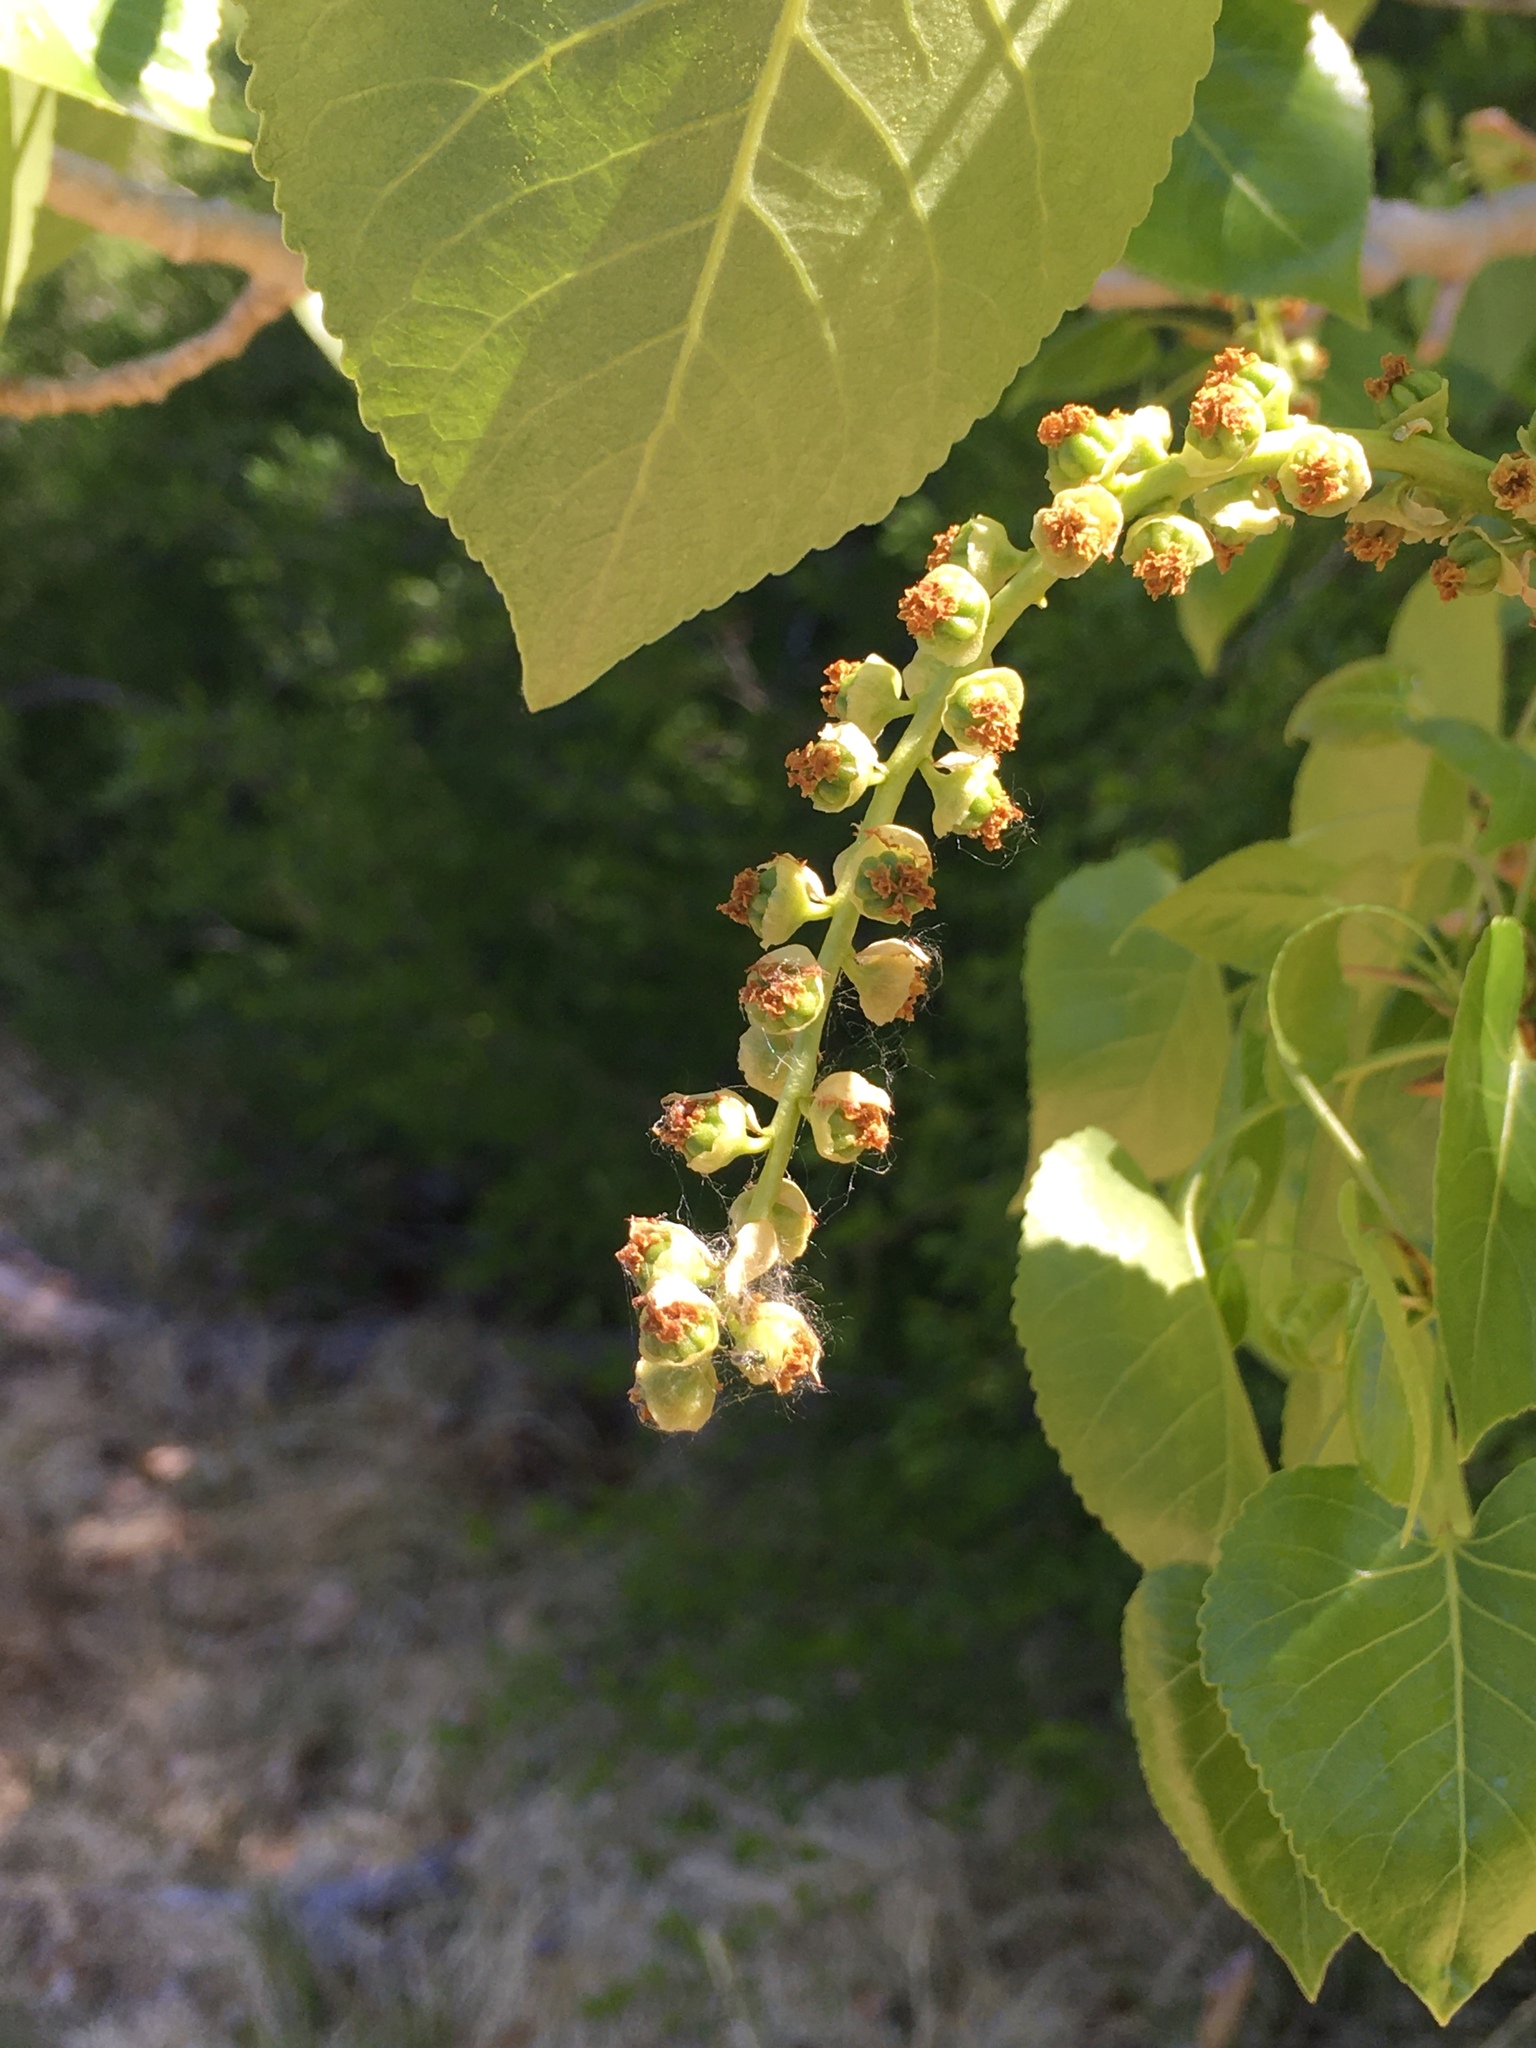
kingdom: Plantae
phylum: Tracheophyta
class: Magnoliopsida
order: Malpighiales
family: Salicaceae
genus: Populus
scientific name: Populus fremontii
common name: Fremont's cottonwood
